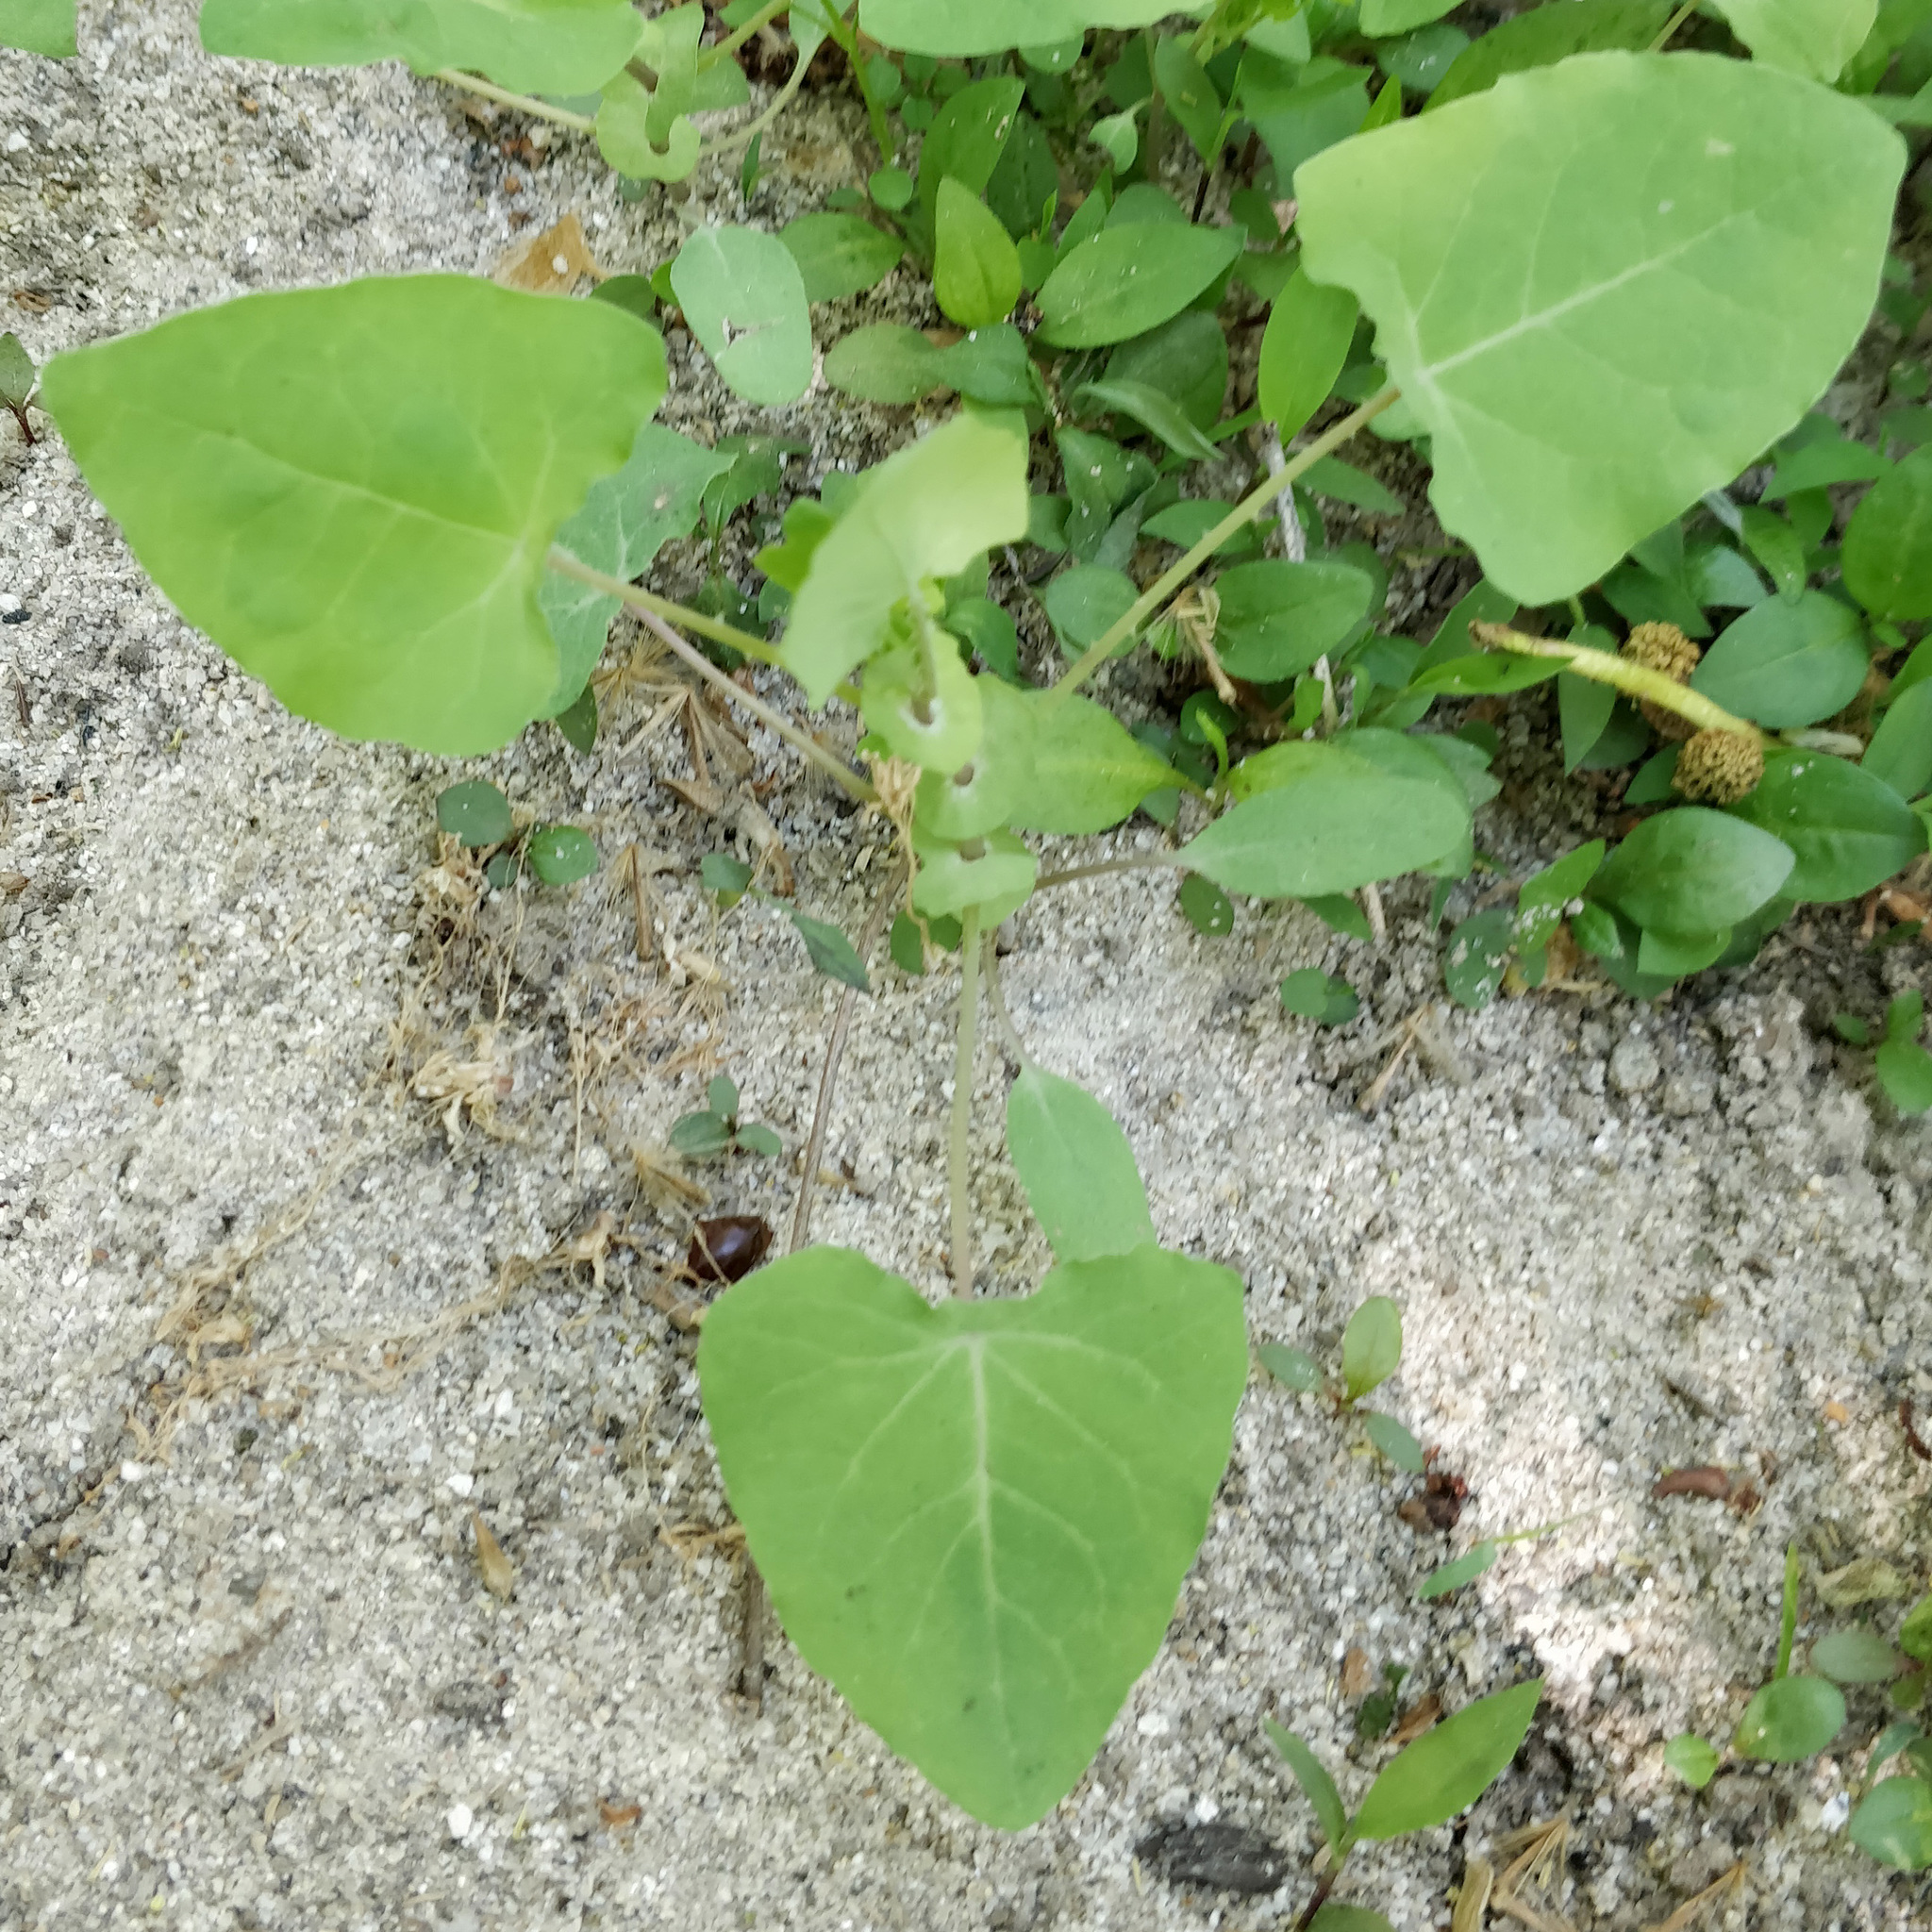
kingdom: Plantae
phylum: Tracheophyta
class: Magnoliopsida
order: Caryophyllales
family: Polygonaceae
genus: Persicaria
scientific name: Persicaria perfoliata
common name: Asiatic tearthumb
